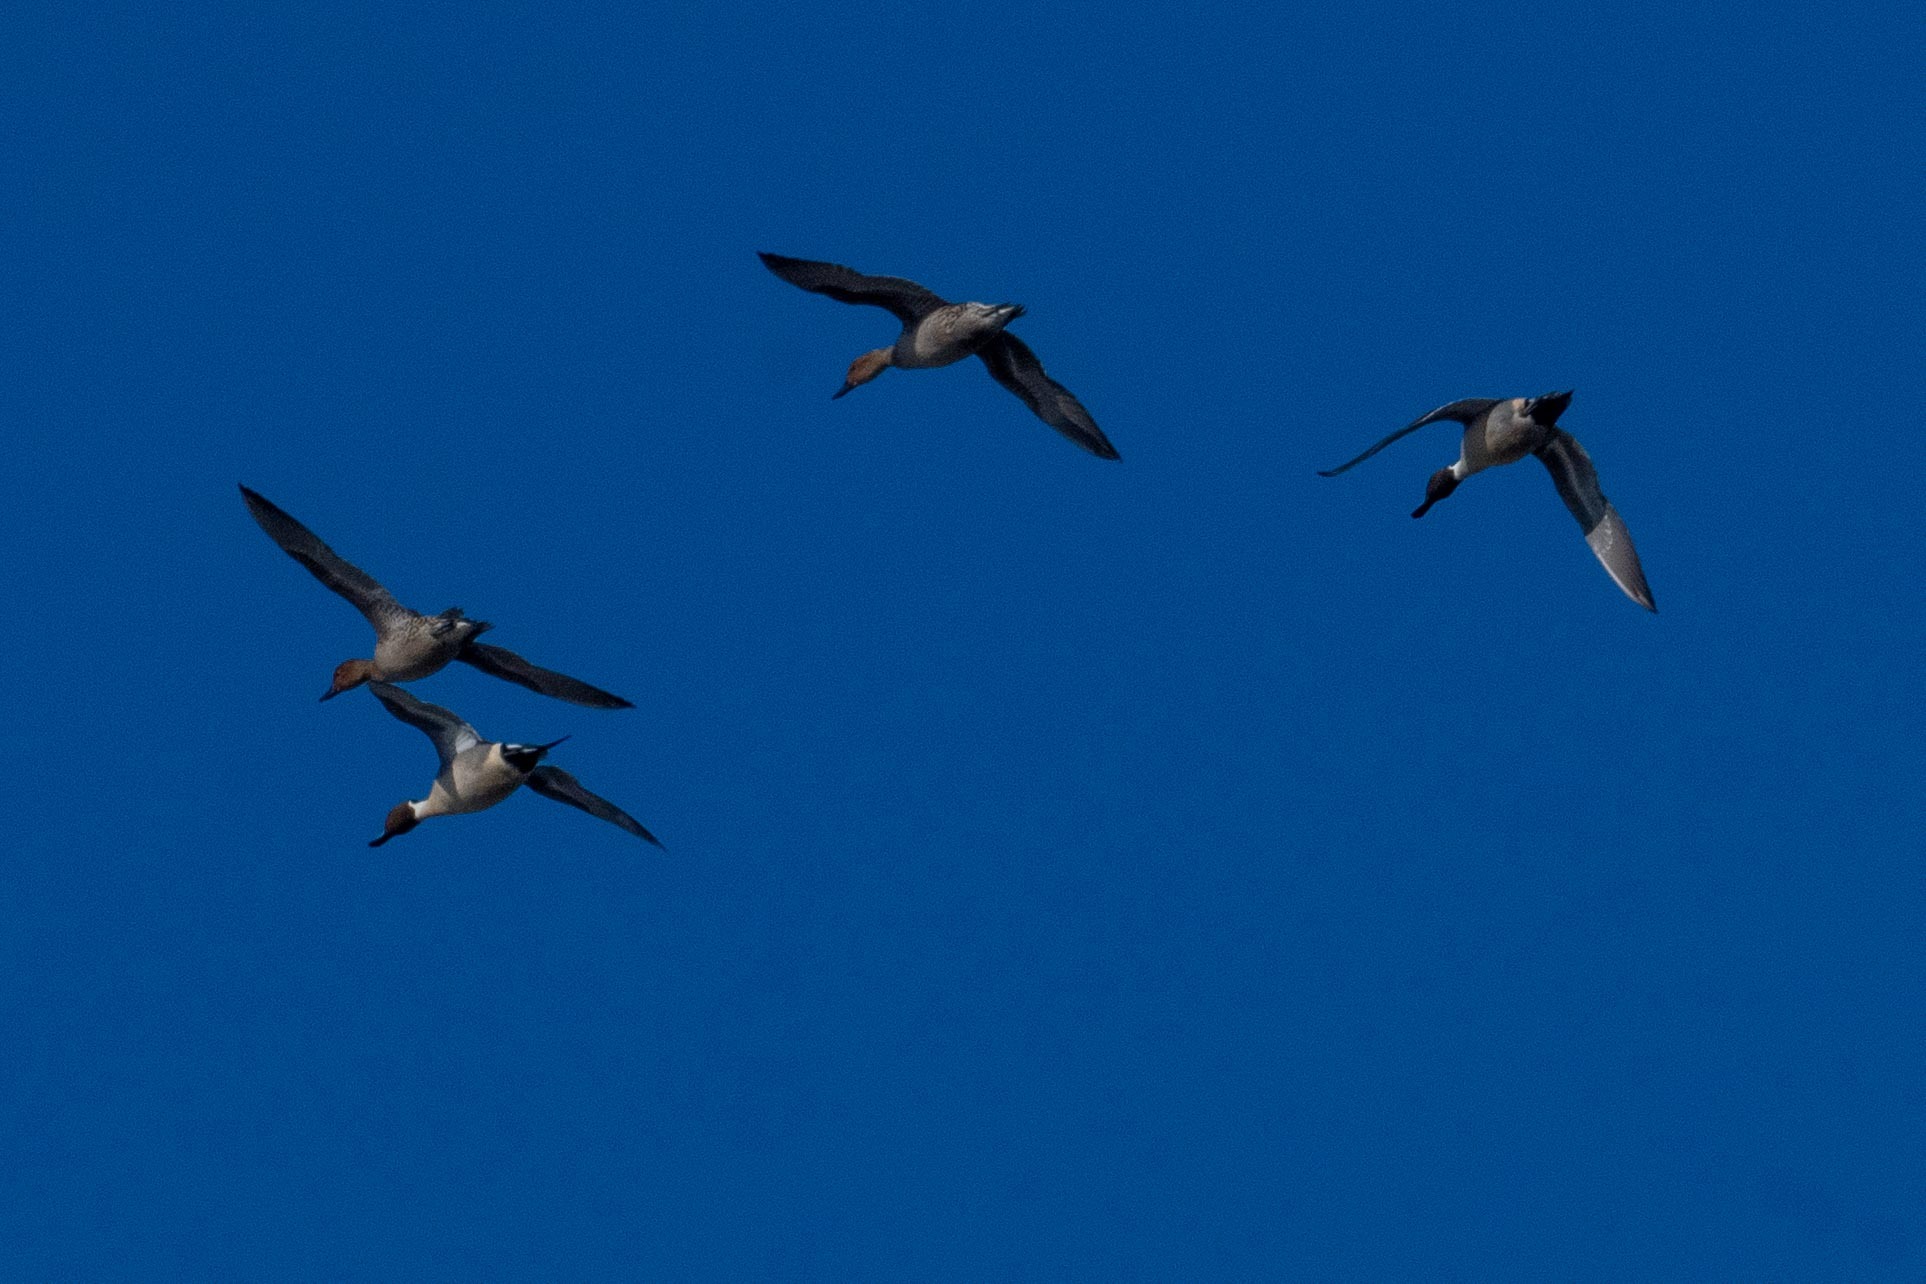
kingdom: Animalia
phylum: Chordata
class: Aves
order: Anseriformes
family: Anatidae
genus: Anas
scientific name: Anas acuta
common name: Northern pintail
